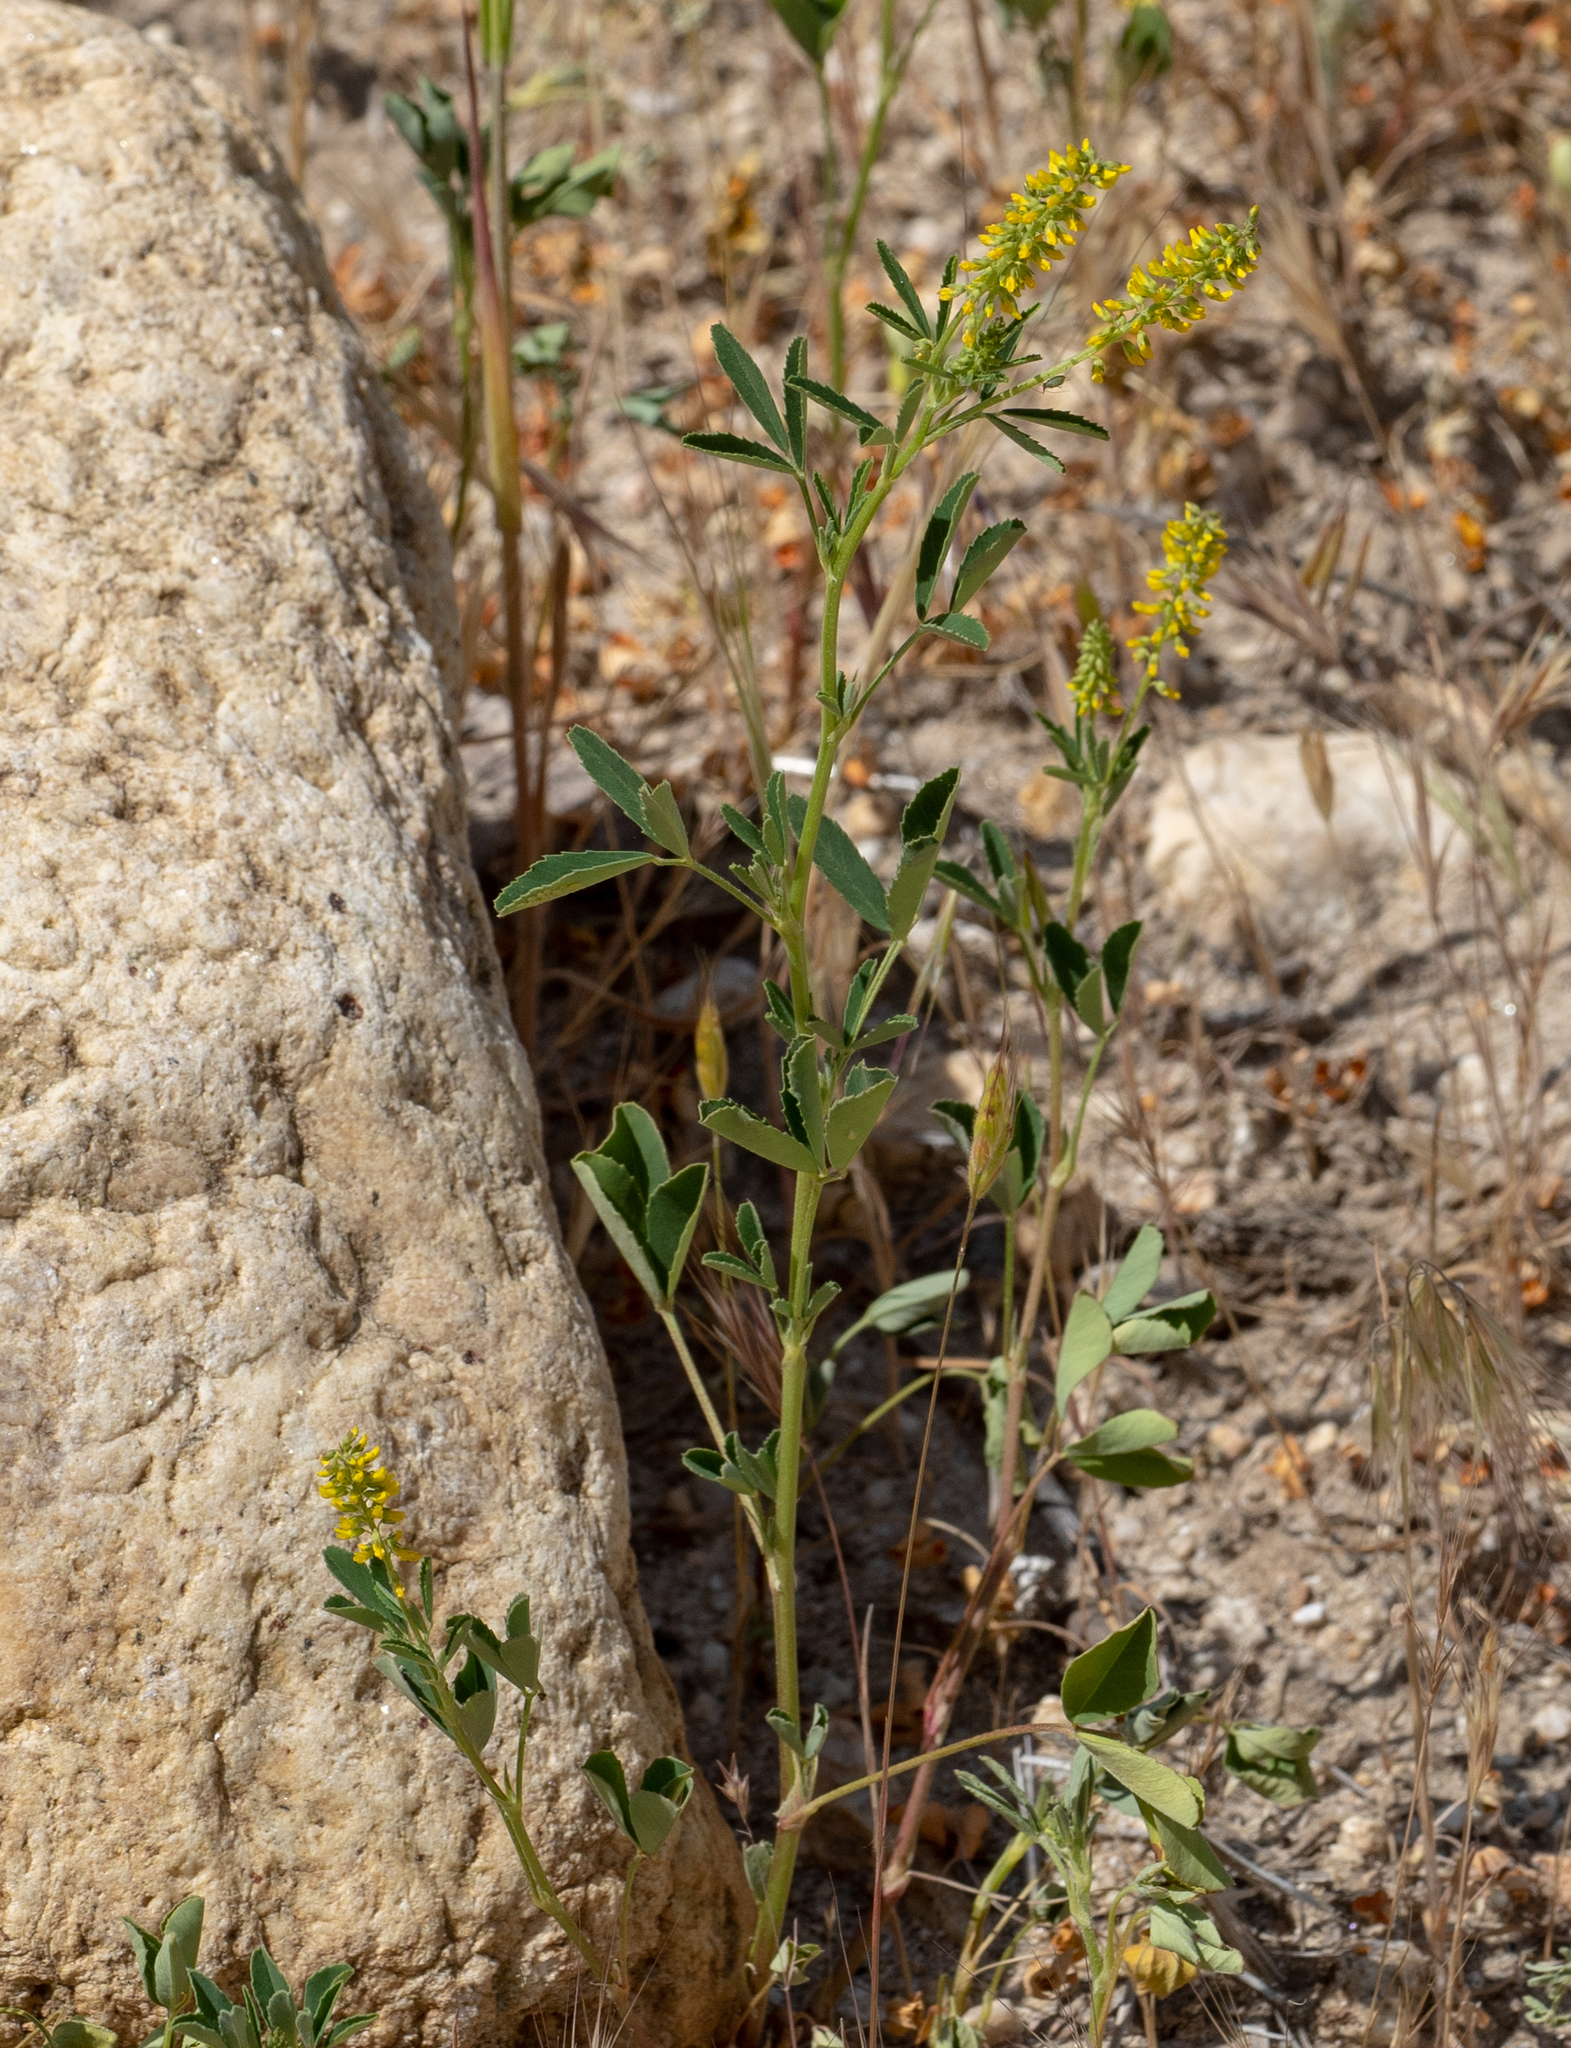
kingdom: Plantae
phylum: Tracheophyta
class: Magnoliopsida
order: Fabales
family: Fabaceae
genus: Melilotus
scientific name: Melilotus indicus
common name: Small melilot
